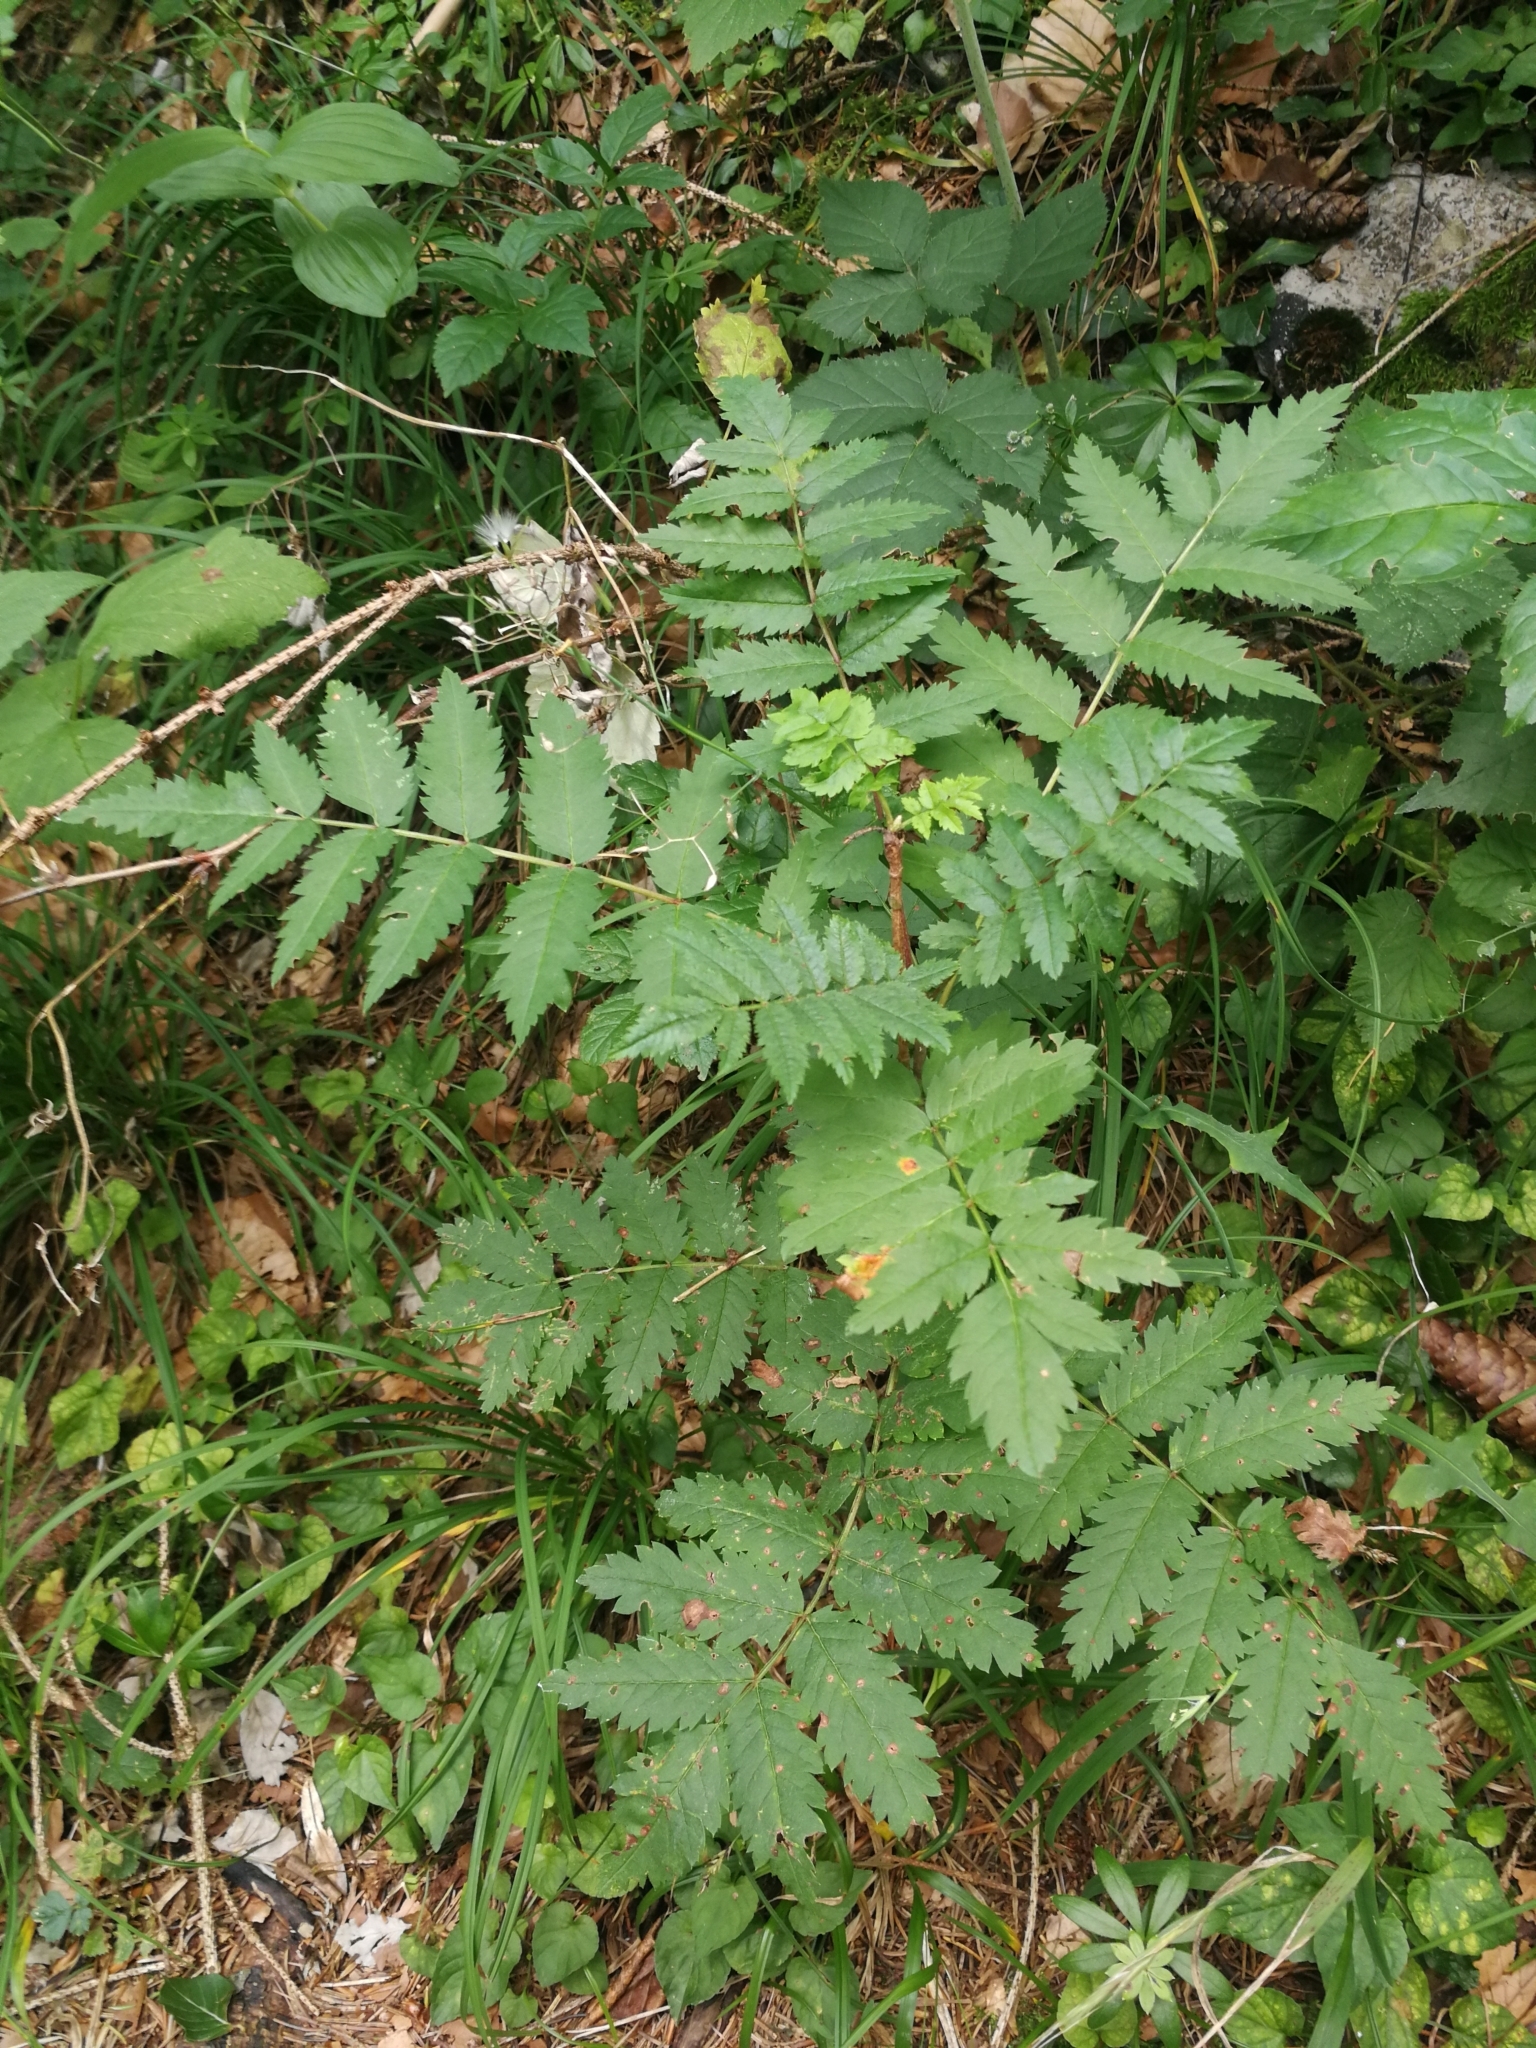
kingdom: Plantae
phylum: Tracheophyta
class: Magnoliopsida
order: Rosales
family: Rosaceae
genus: Sorbus
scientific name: Sorbus aucuparia
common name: Rowan
